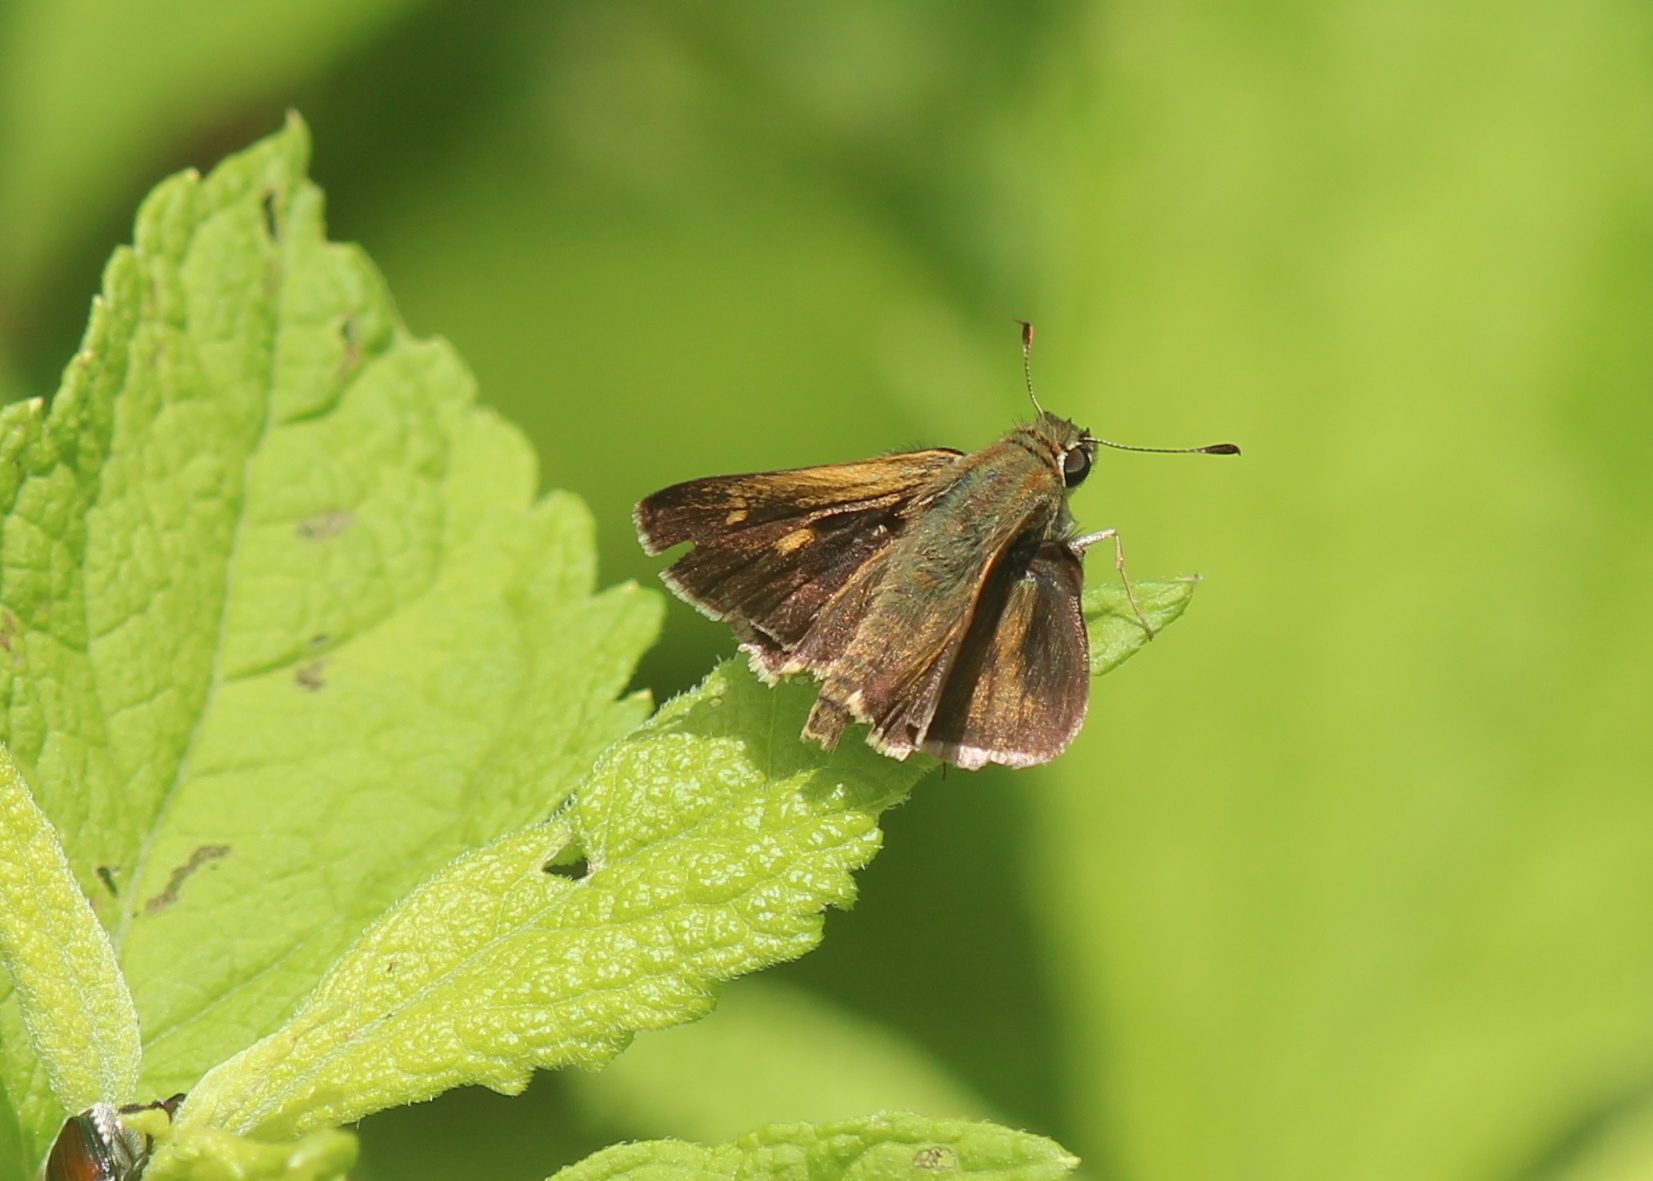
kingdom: Animalia
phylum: Arthropoda
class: Insecta
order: Lepidoptera
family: Hesperiidae
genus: Polites
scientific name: Polites egeremet
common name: Northern broken-dash
